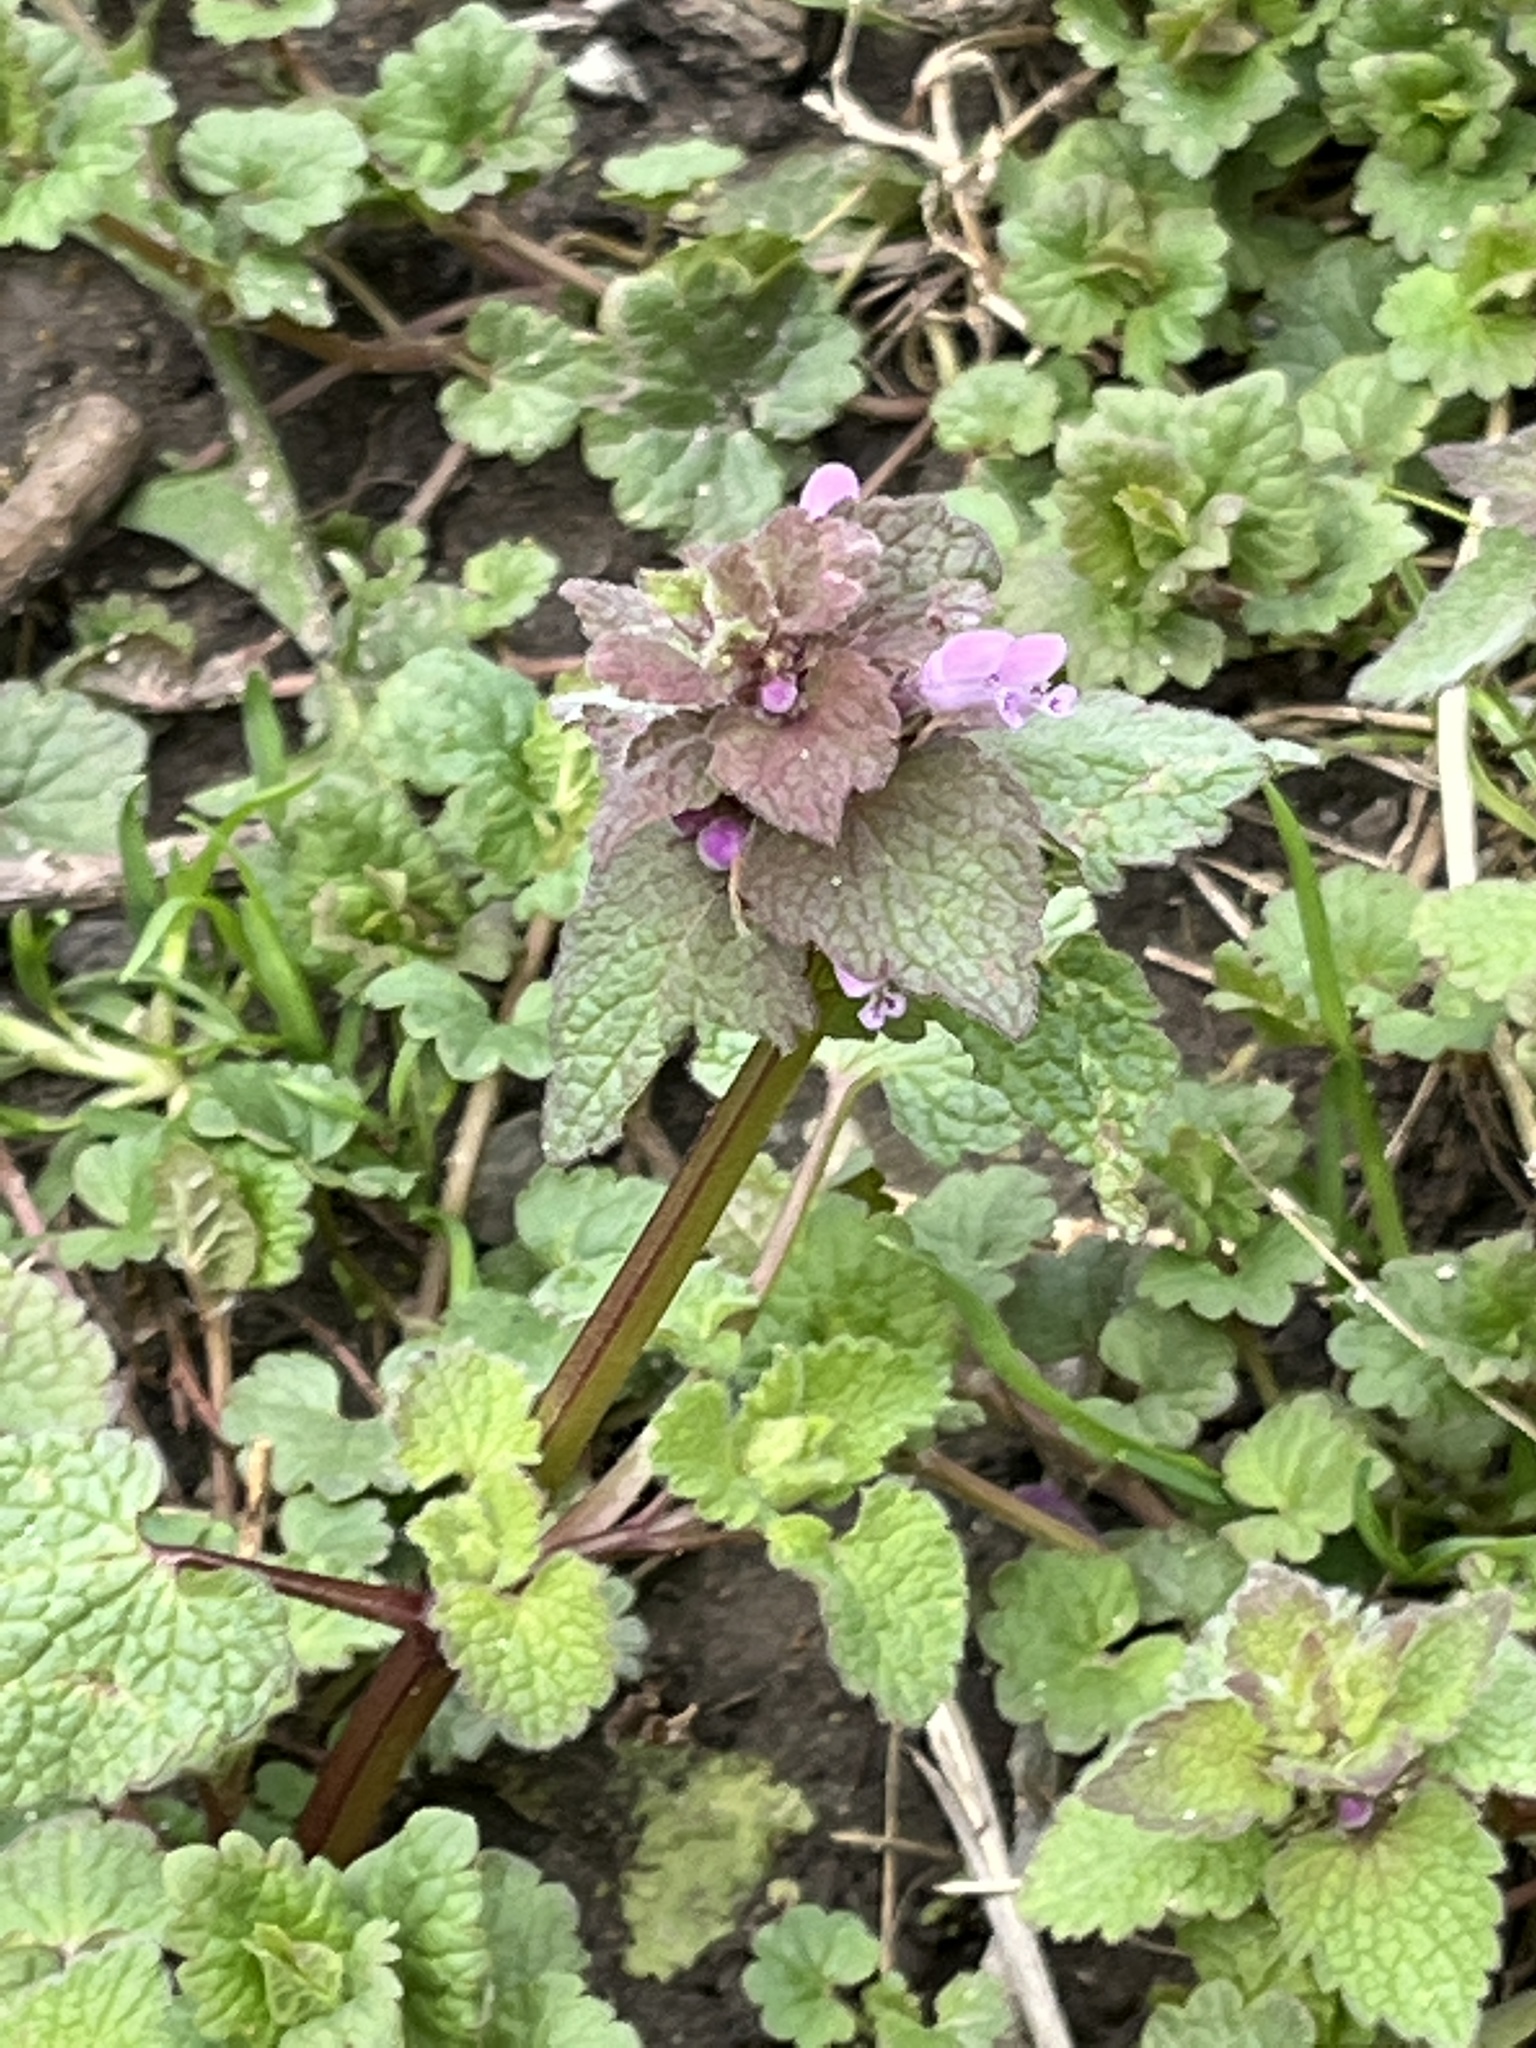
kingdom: Plantae
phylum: Tracheophyta
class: Magnoliopsida
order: Lamiales
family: Lamiaceae
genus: Lamium
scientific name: Lamium purpureum
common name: Red dead-nettle
